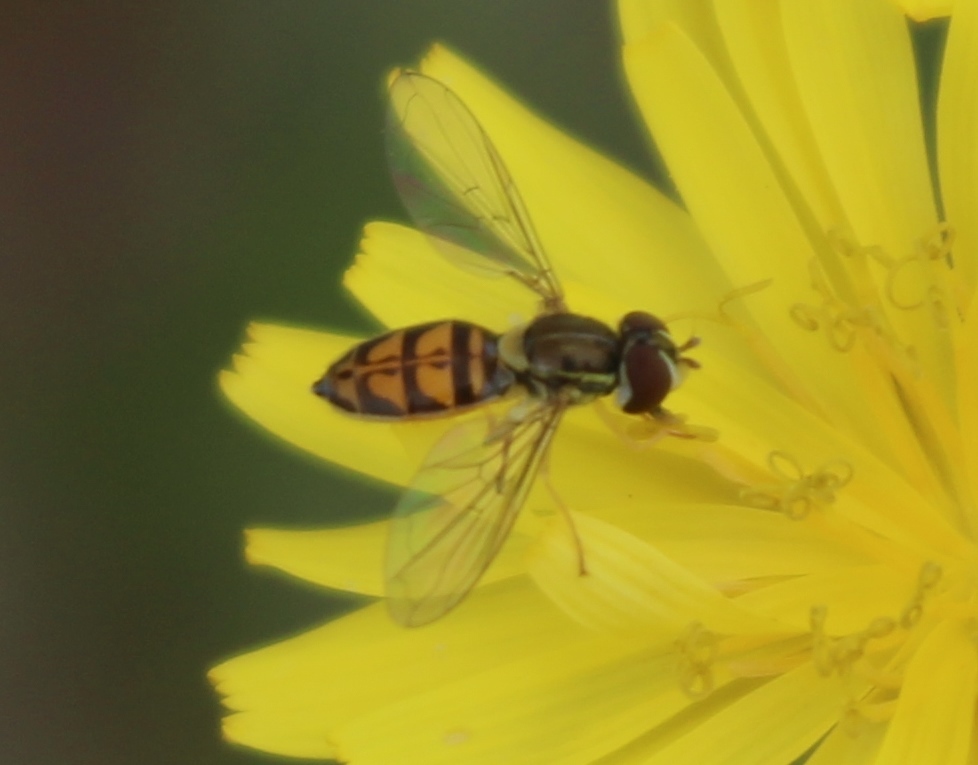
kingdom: Animalia
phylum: Arthropoda
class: Insecta
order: Diptera
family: Syrphidae
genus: Toxomerus
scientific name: Toxomerus marginatus
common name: Syrphid fly
